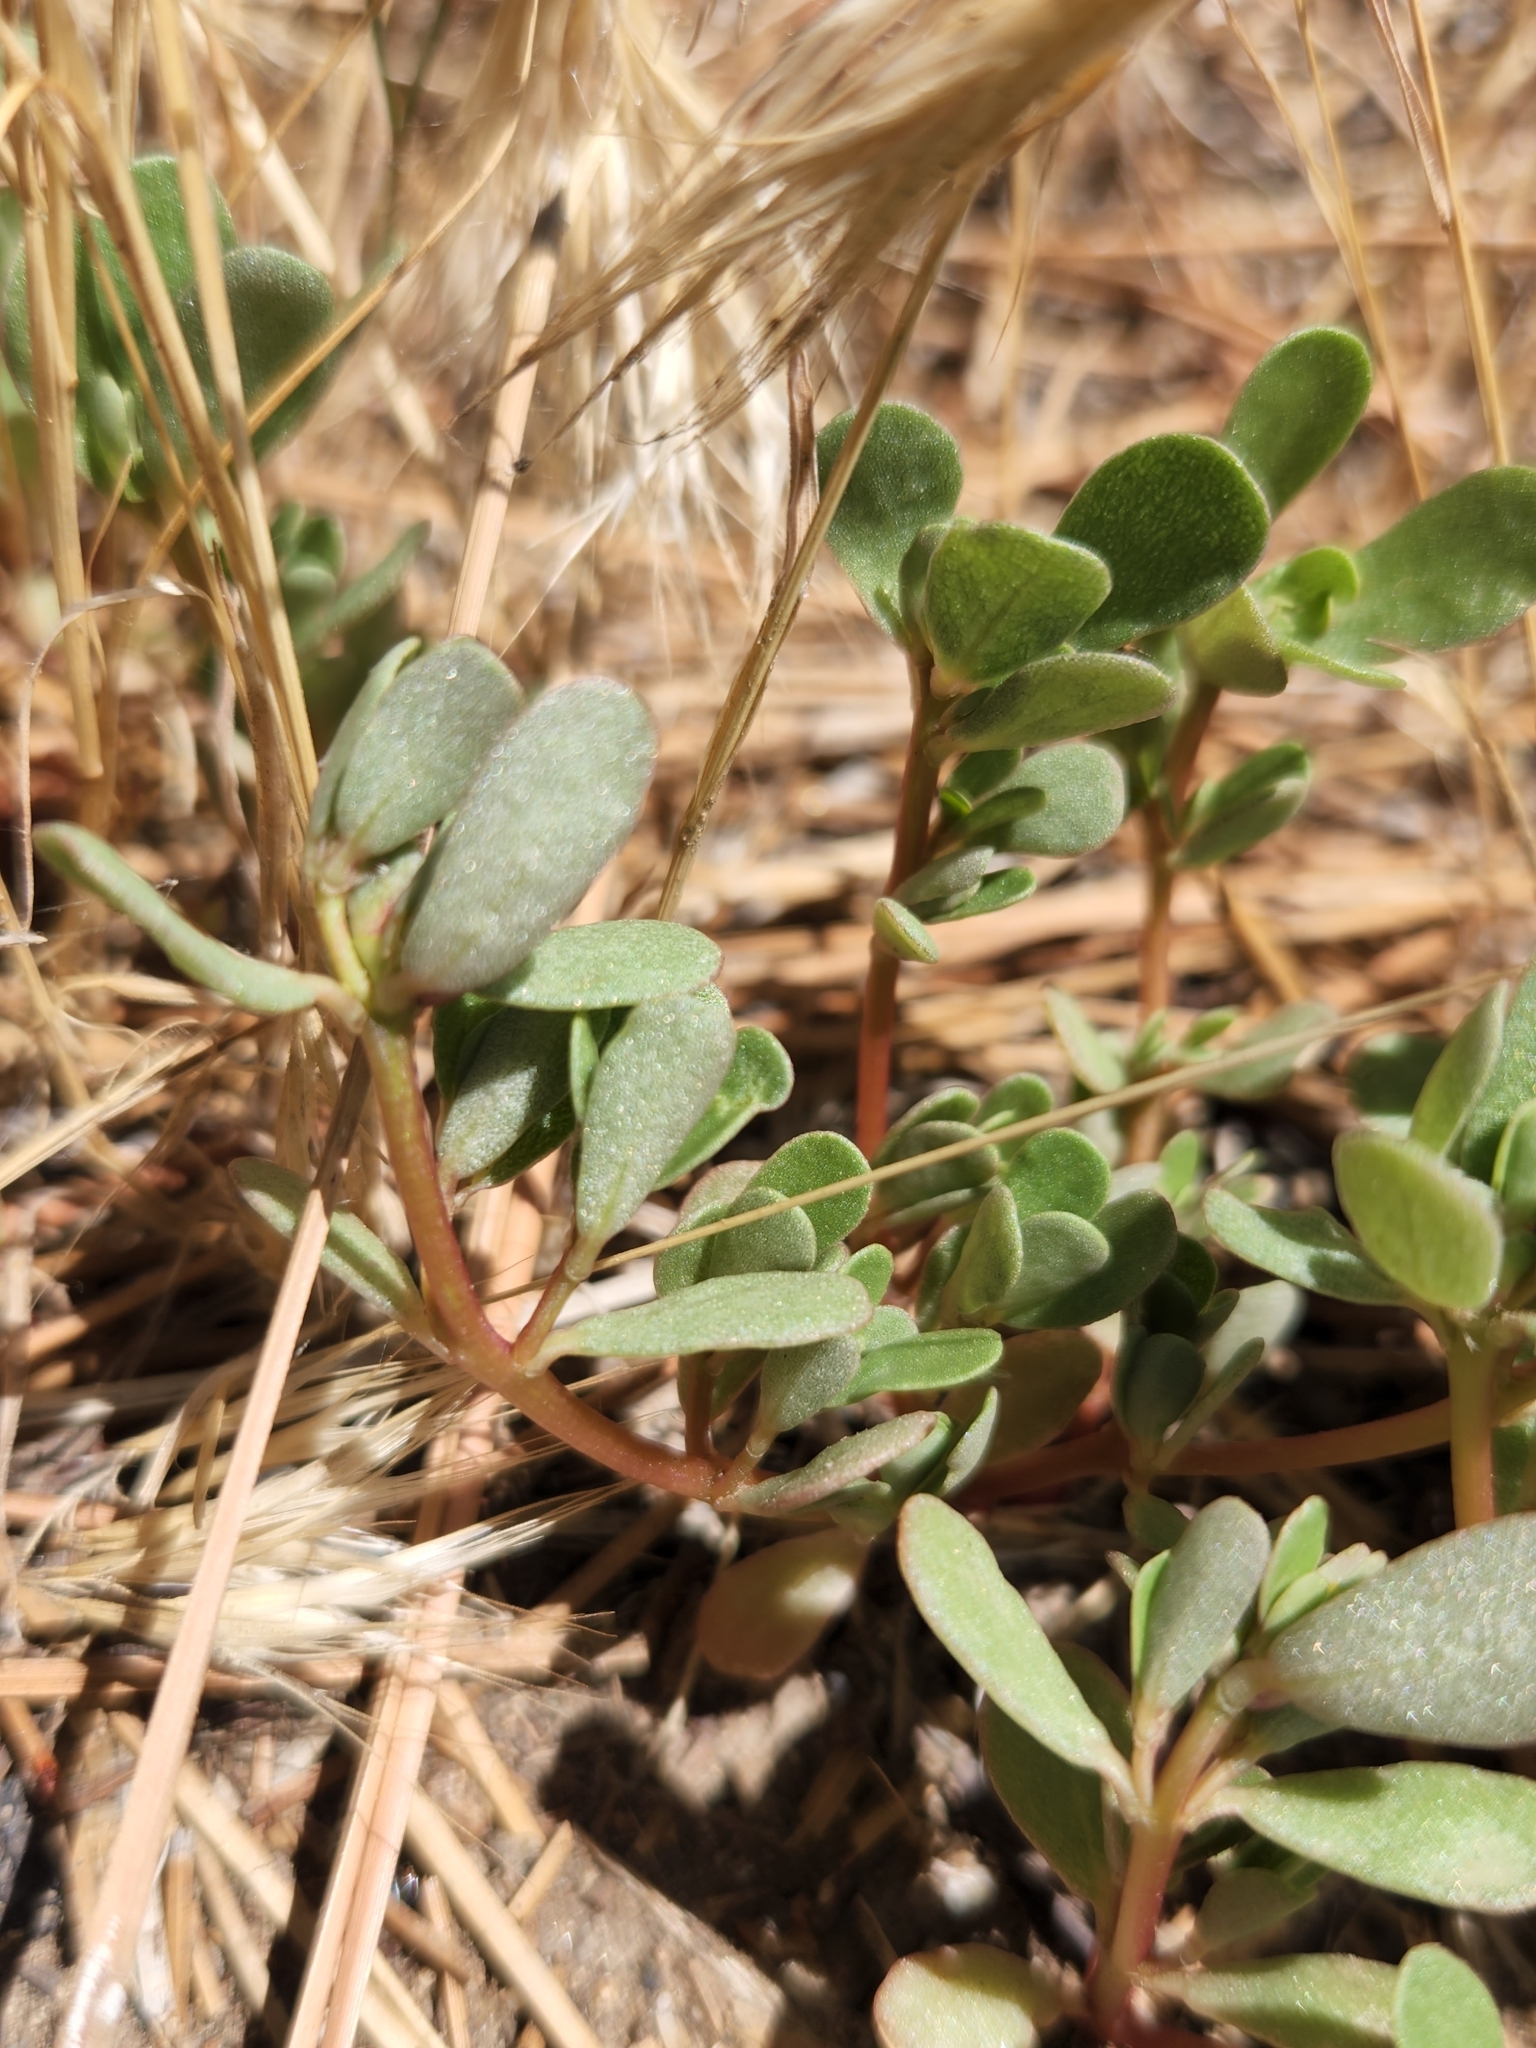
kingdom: Plantae
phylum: Tracheophyta
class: Magnoliopsida
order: Caryophyllales
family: Portulacaceae
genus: Portulaca
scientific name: Portulaca oleracea
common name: Common purslane
